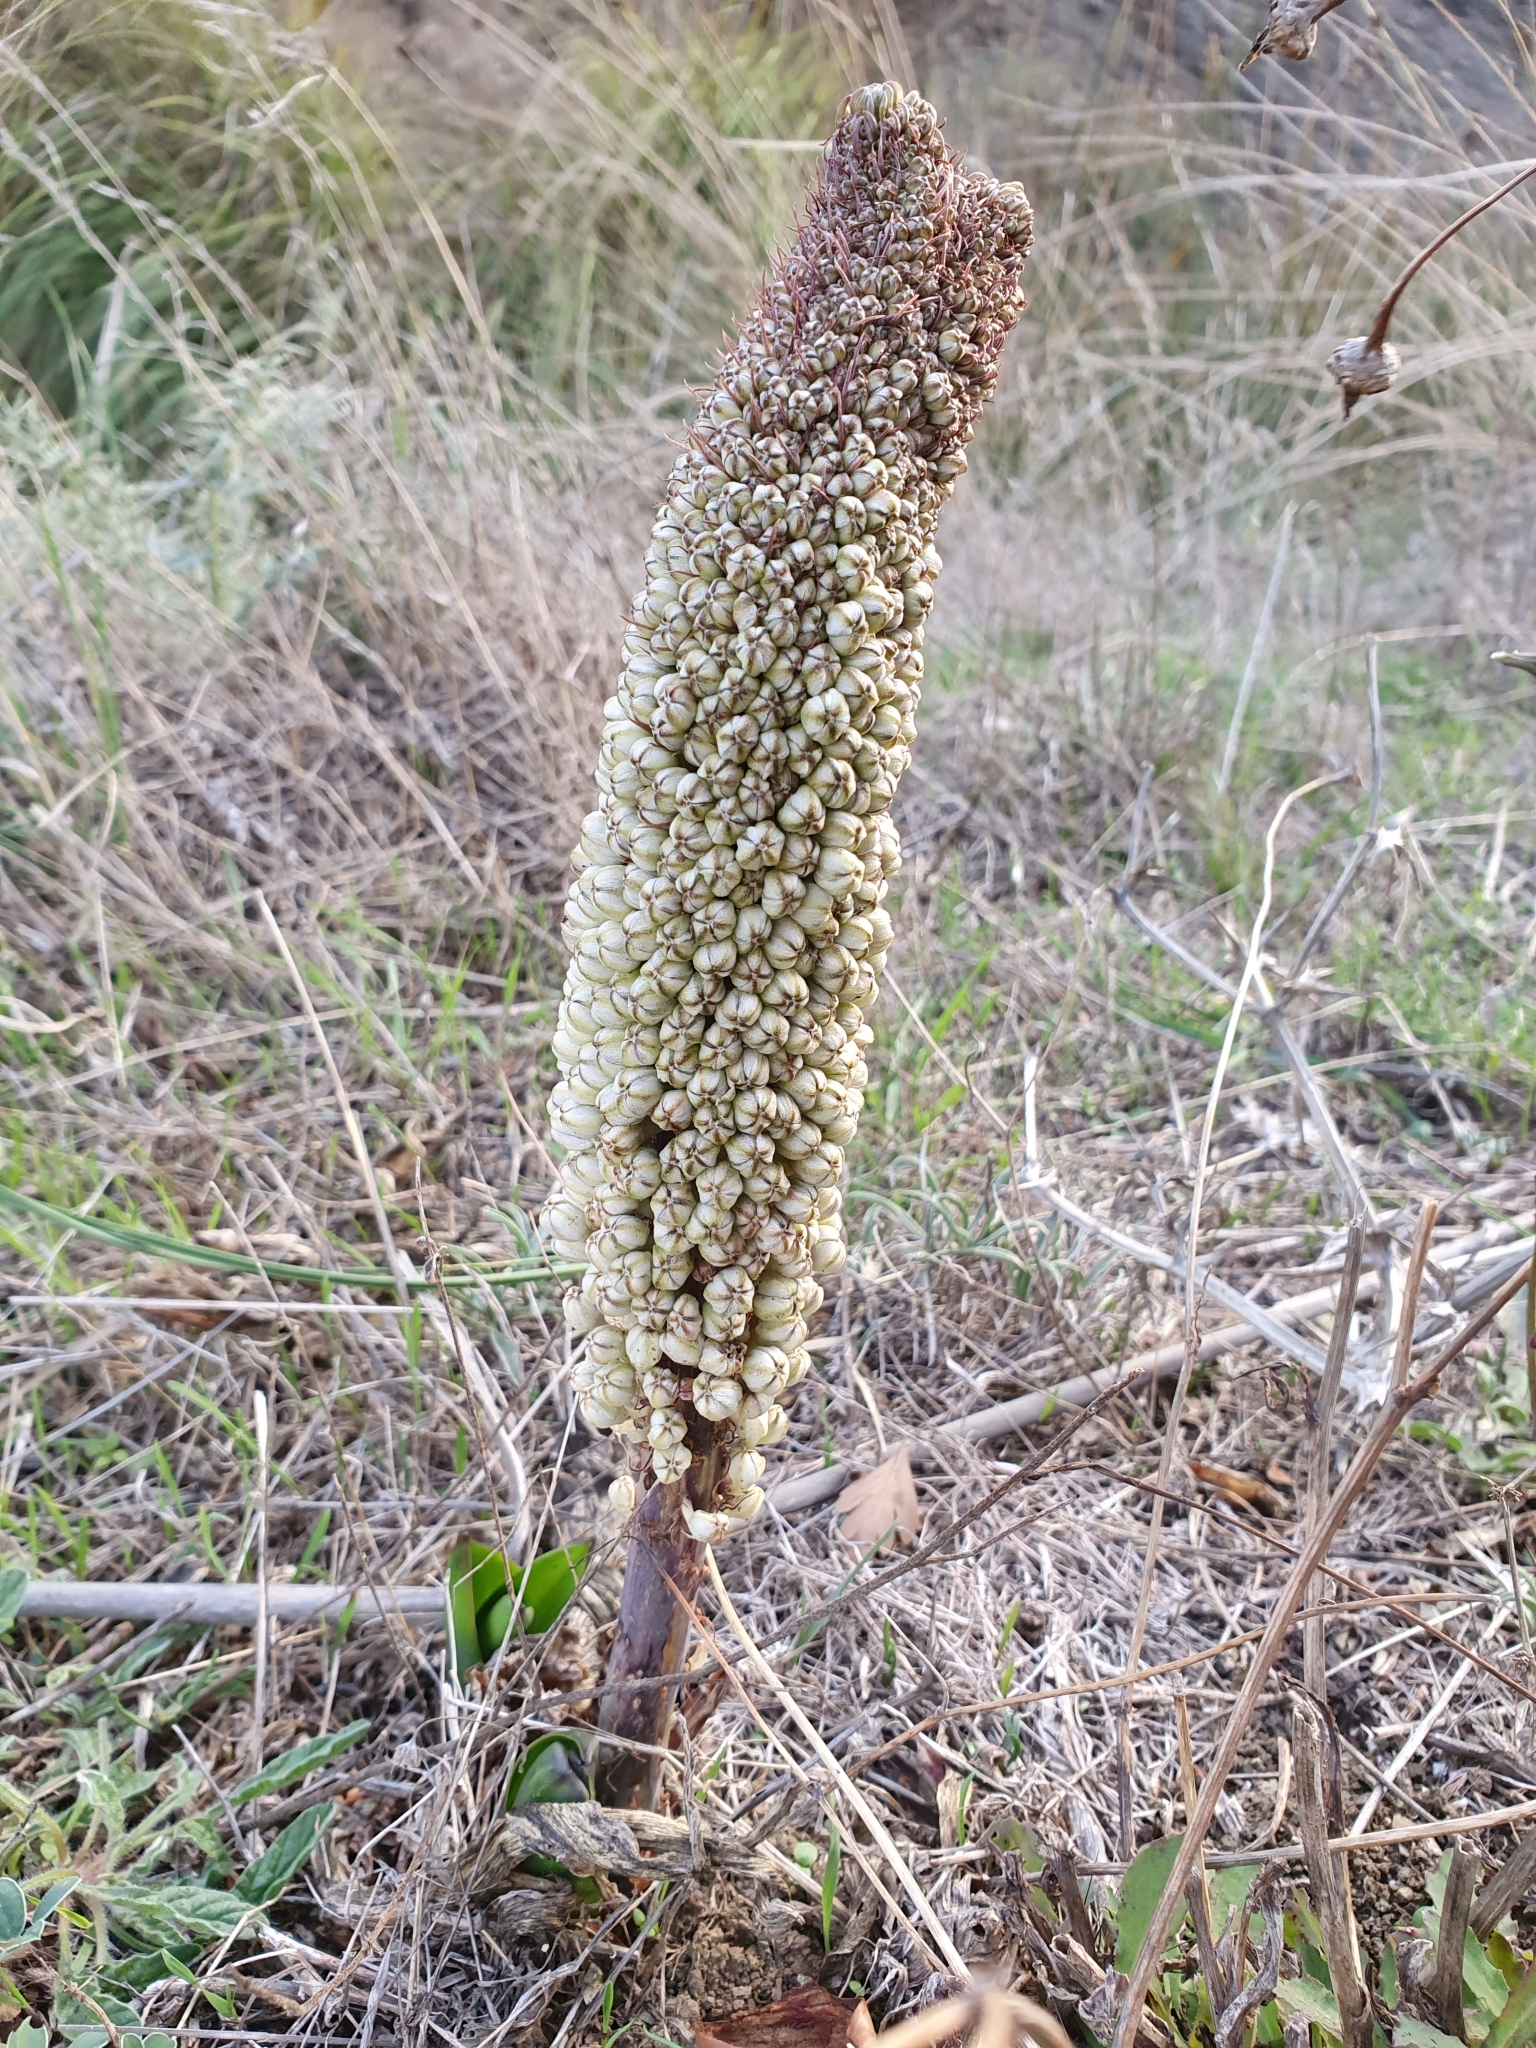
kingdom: Plantae
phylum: Tracheophyta
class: Liliopsida
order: Asparagales
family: Asparagaceae
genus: Drimia
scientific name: Drimia numidica
